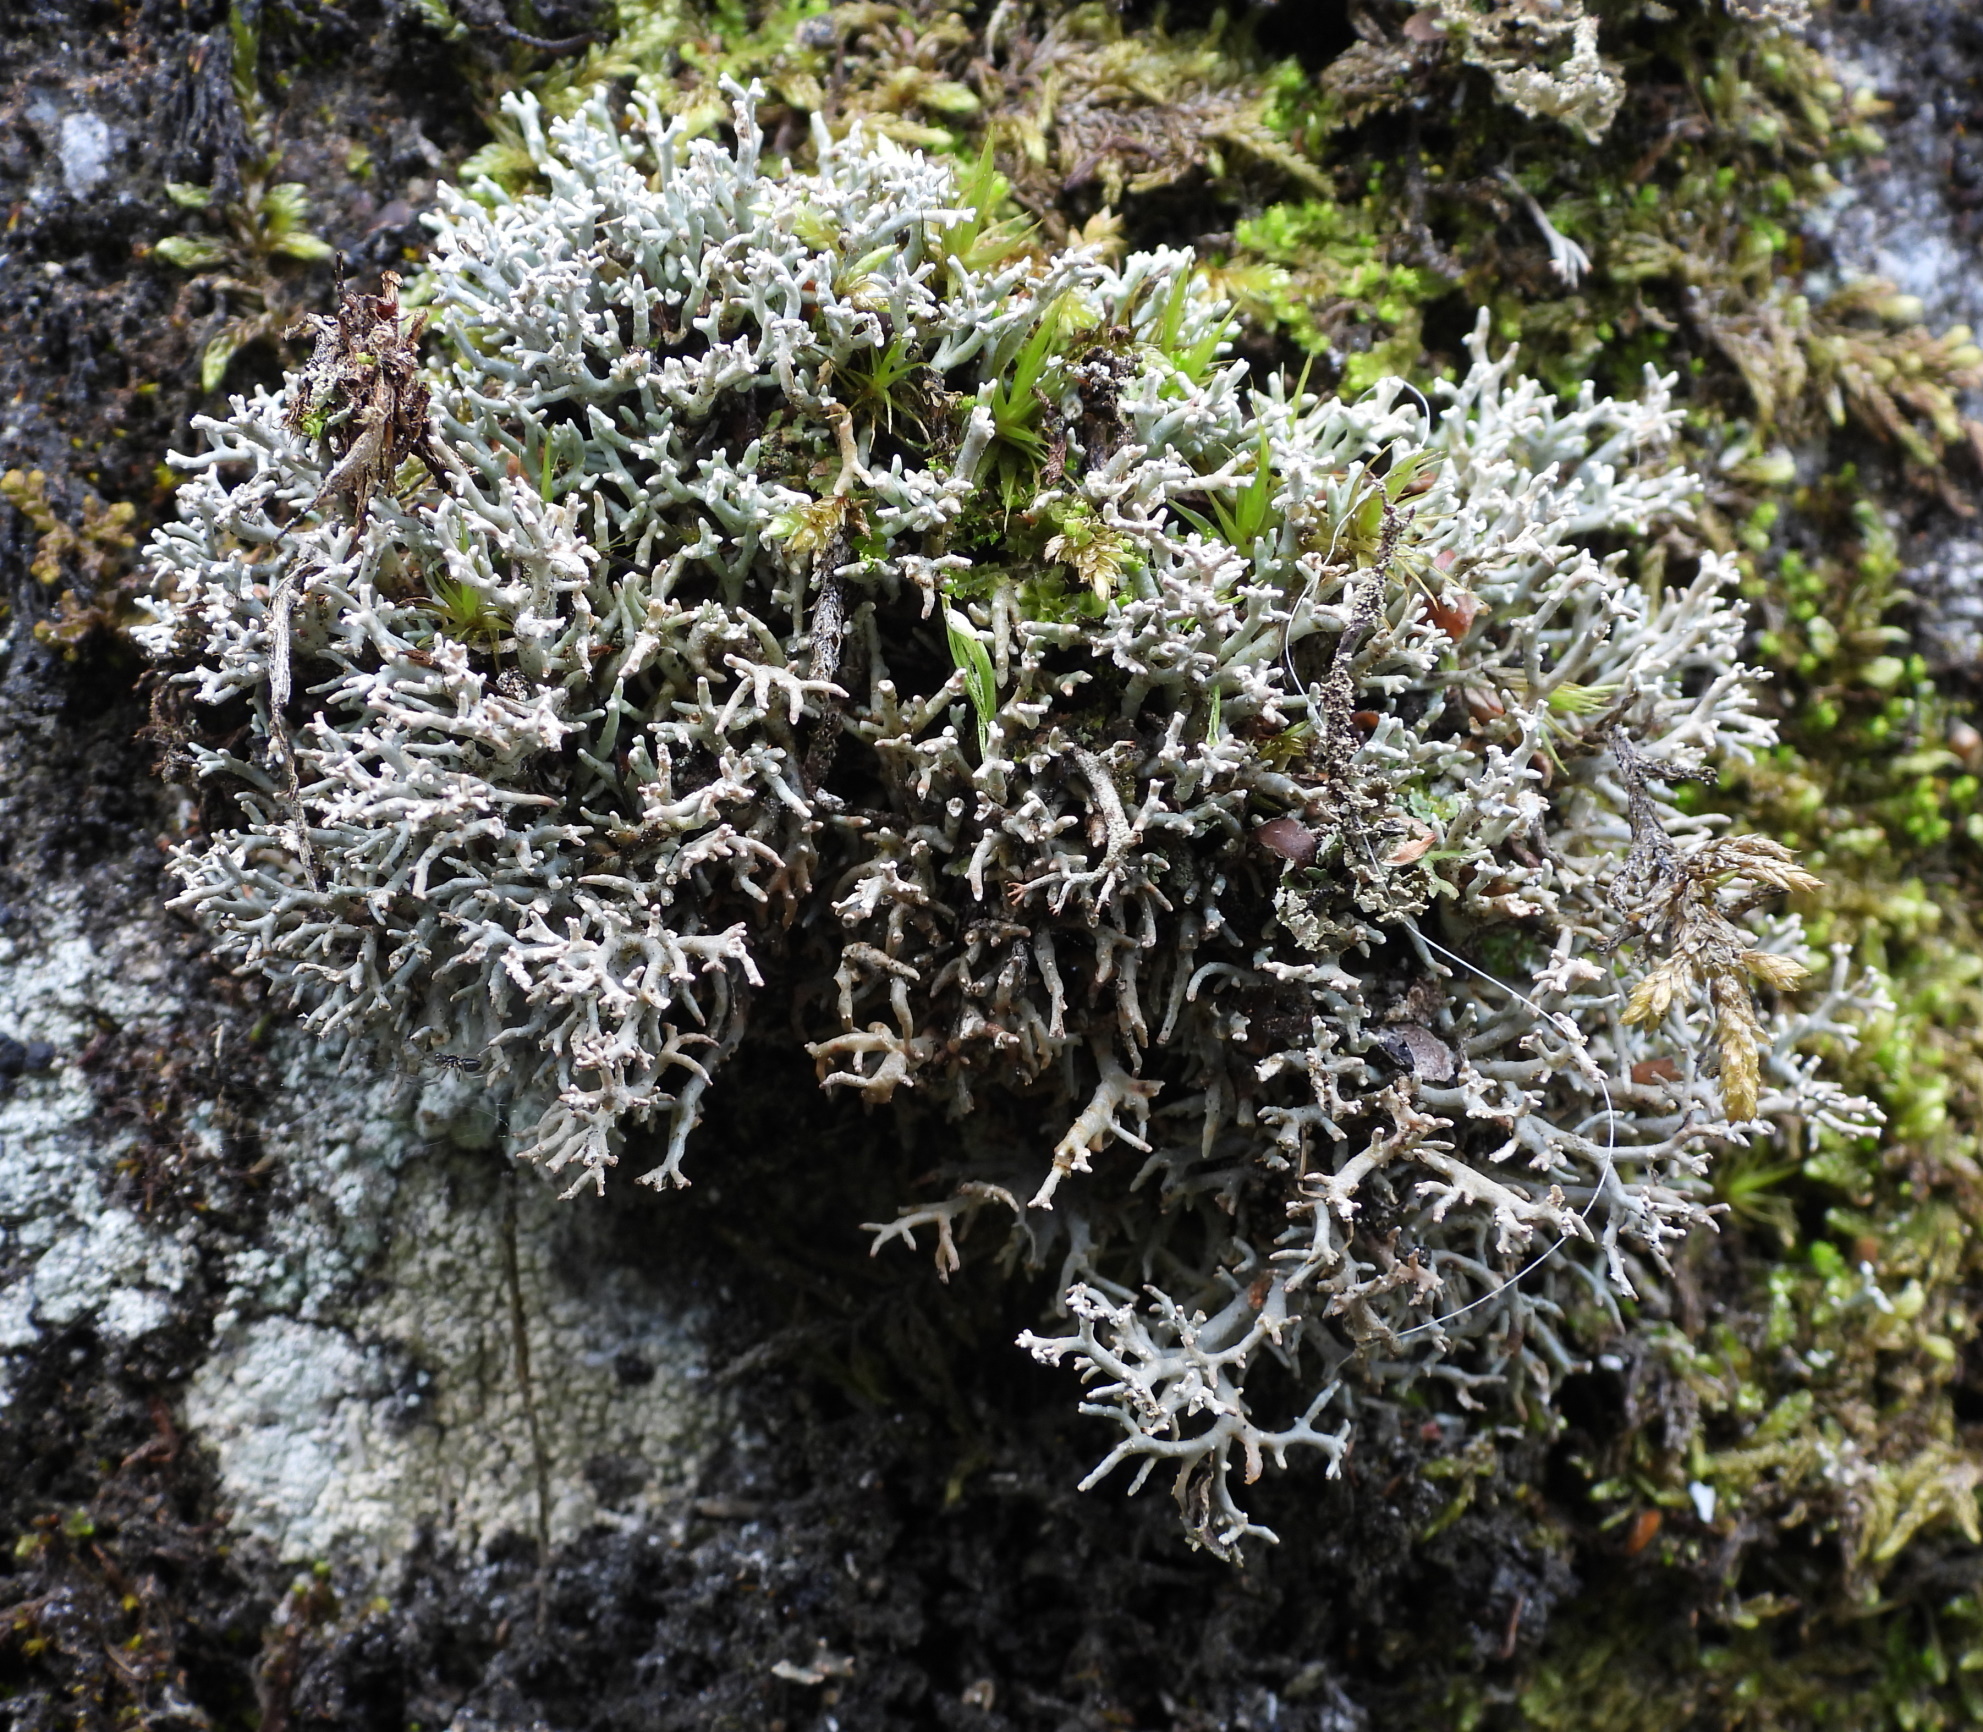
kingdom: Fungi
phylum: Ascomycota
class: Lecanoromycetes
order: Lecanorales
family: Sphaerophoraceae
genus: Sphaerophorus
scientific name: Sphaerophorus fragilis
